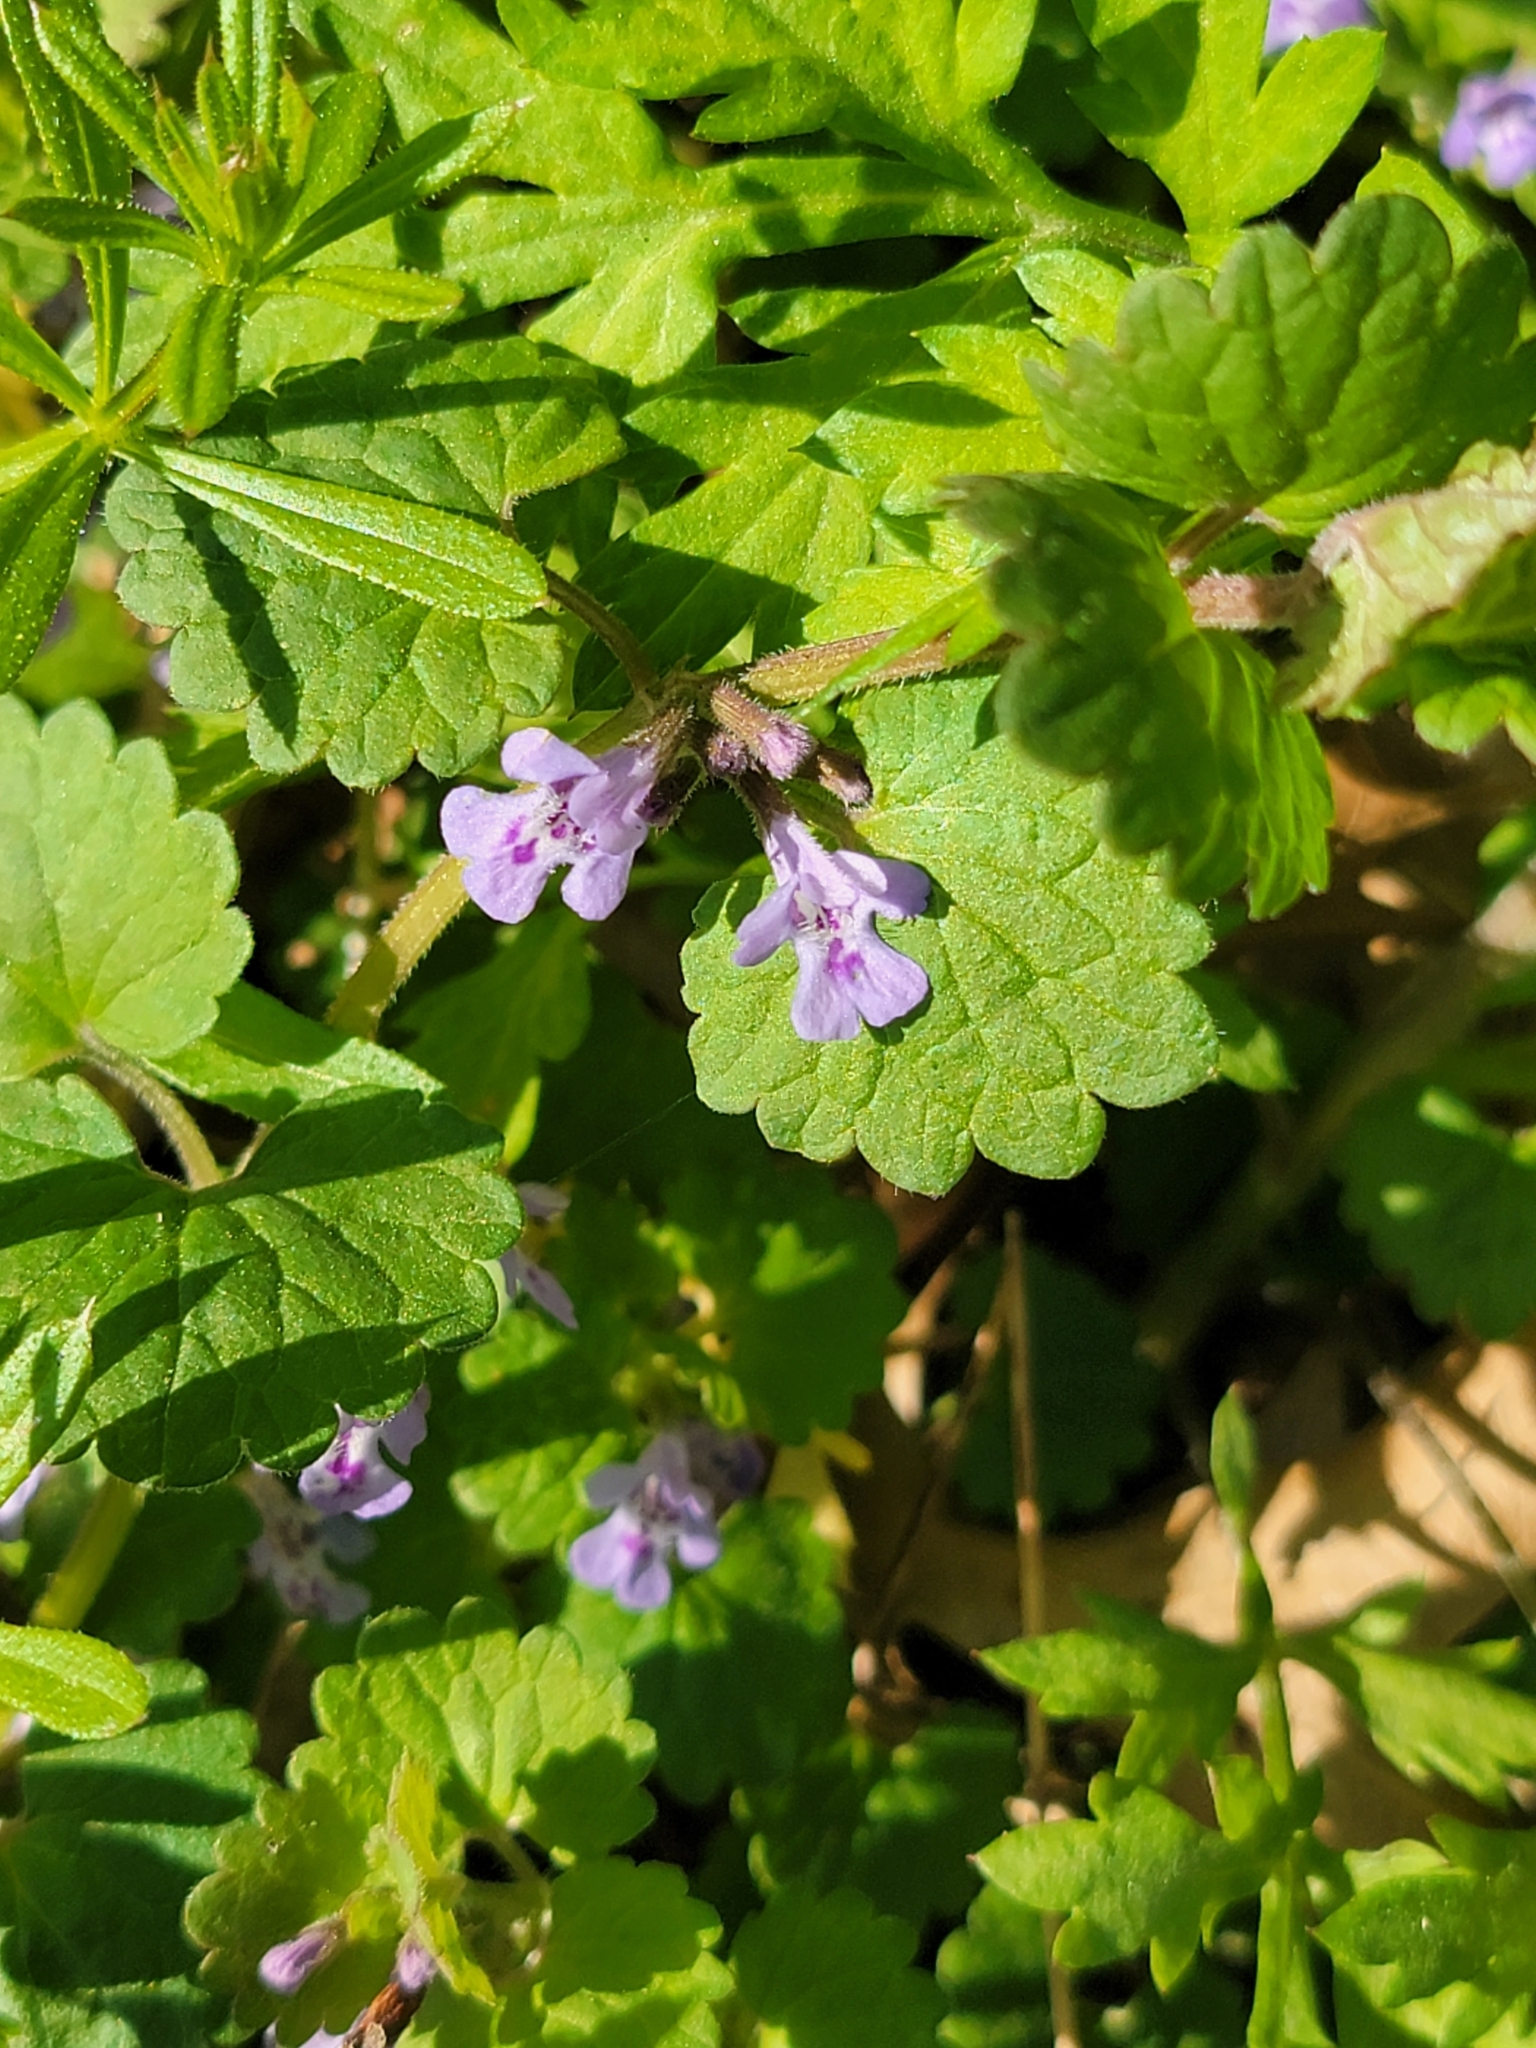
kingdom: Plantae
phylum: Tracheophyta
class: Magnoliopsida
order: Lamiales
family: Lamiaceae
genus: Glechoma
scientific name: Glechoma hederacea
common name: Ground ivy
